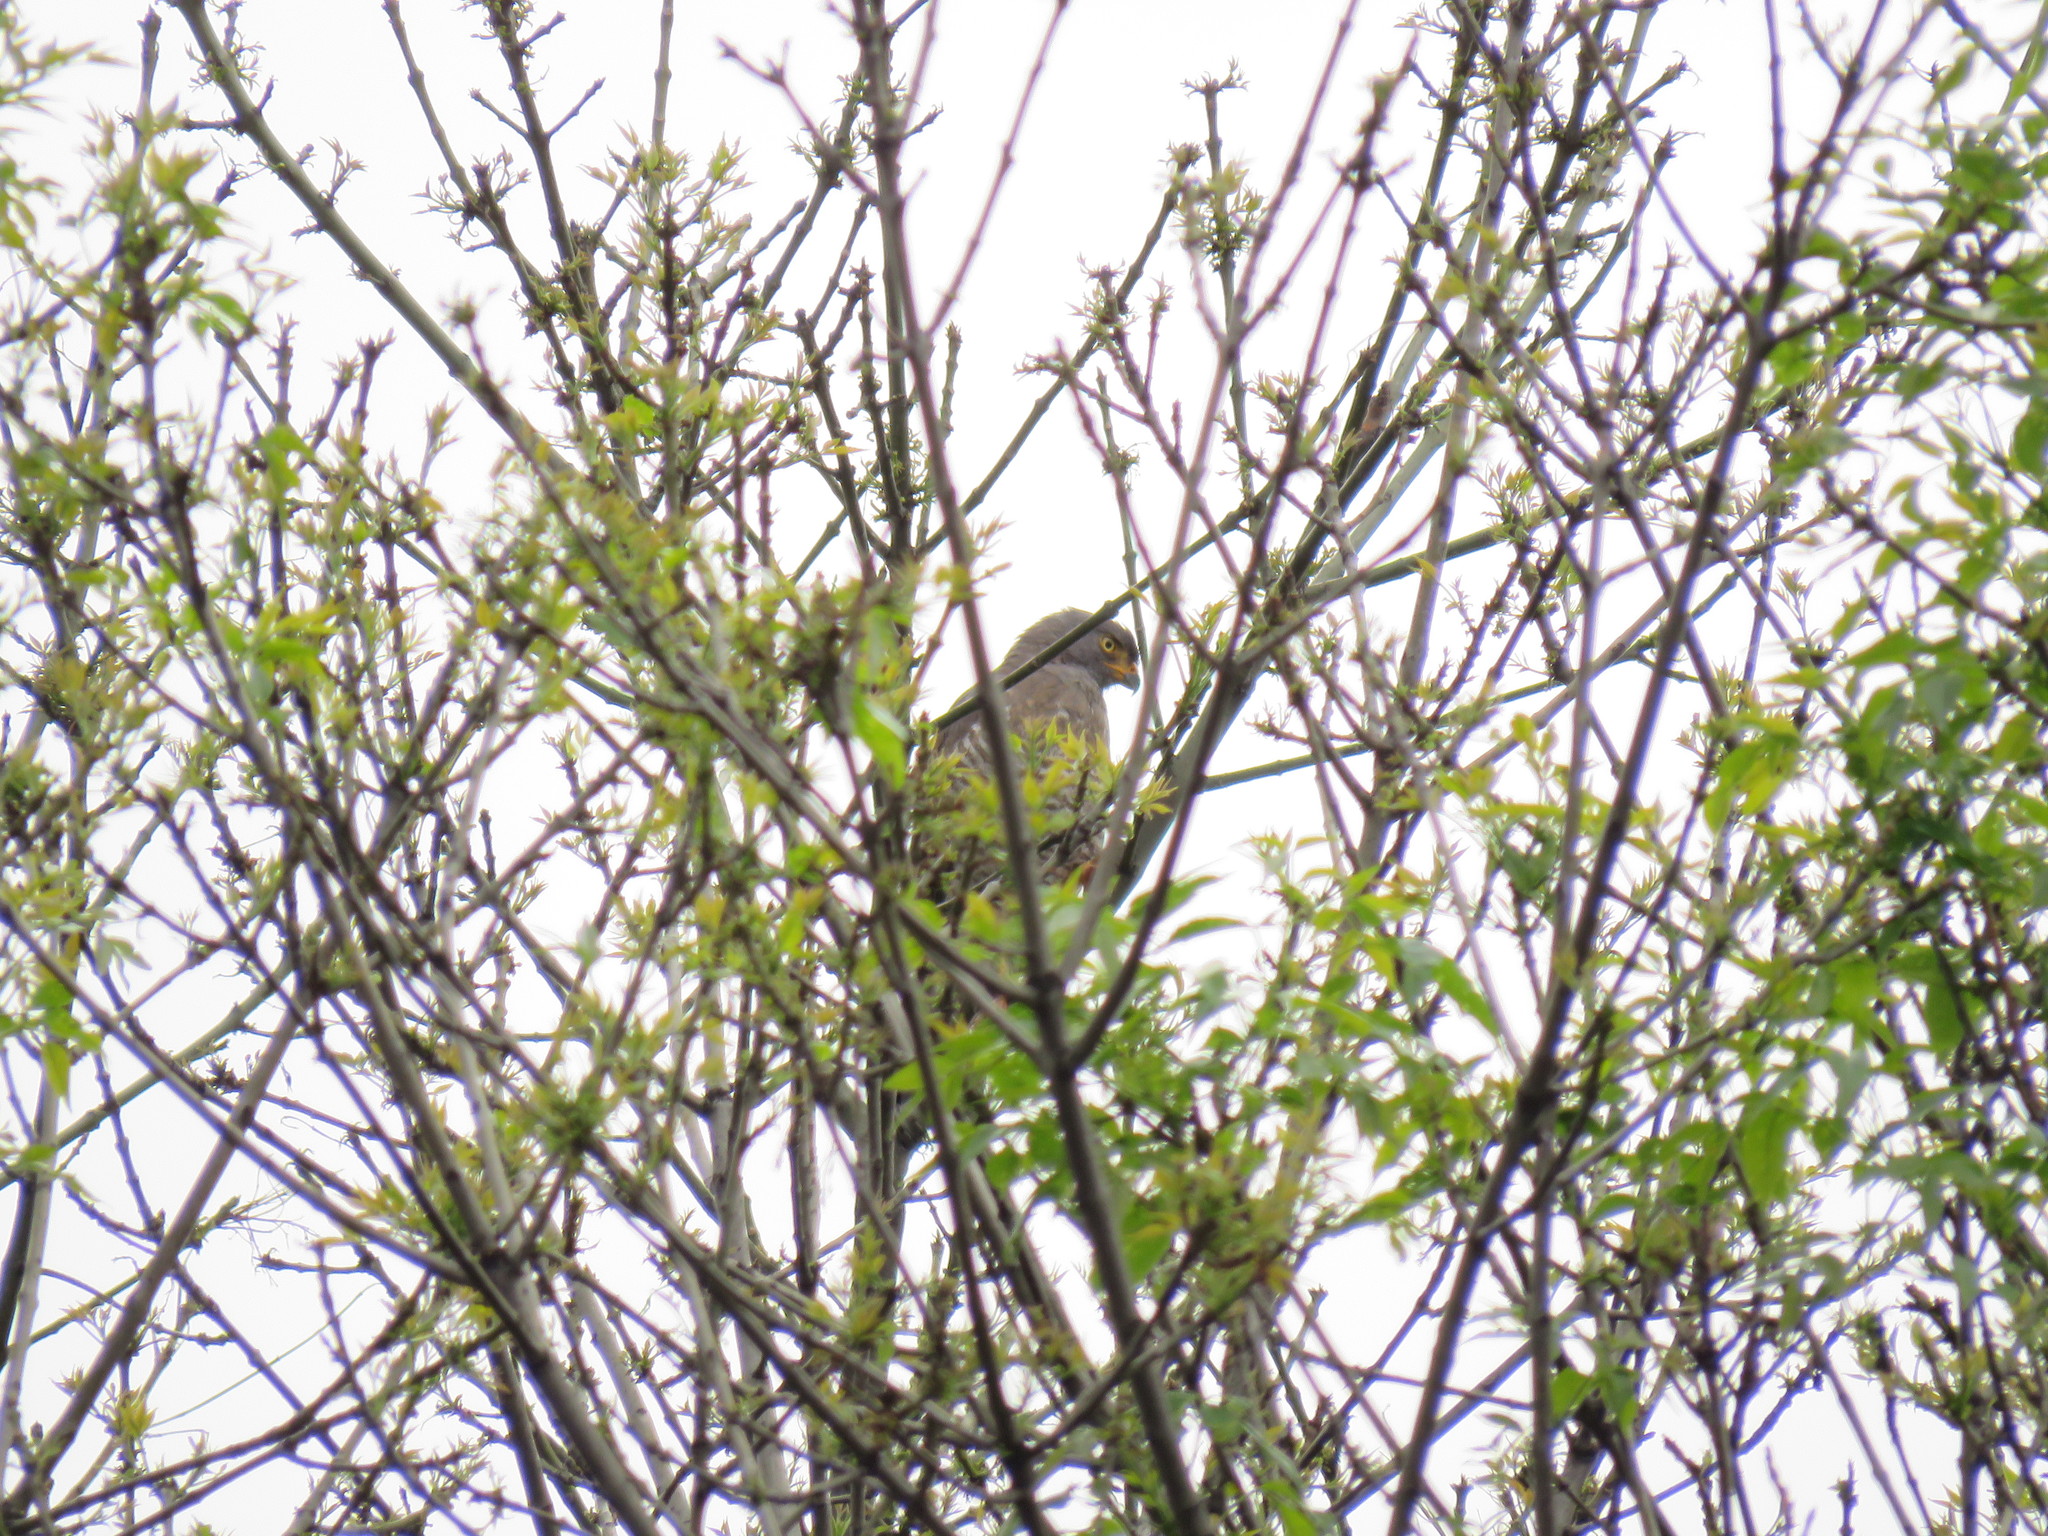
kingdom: Animalia
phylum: Chordata
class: Aves
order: Accipitriformes
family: Accipitridae
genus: Rupornis
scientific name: Rupornis magnirostris
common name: Roadside hawk
